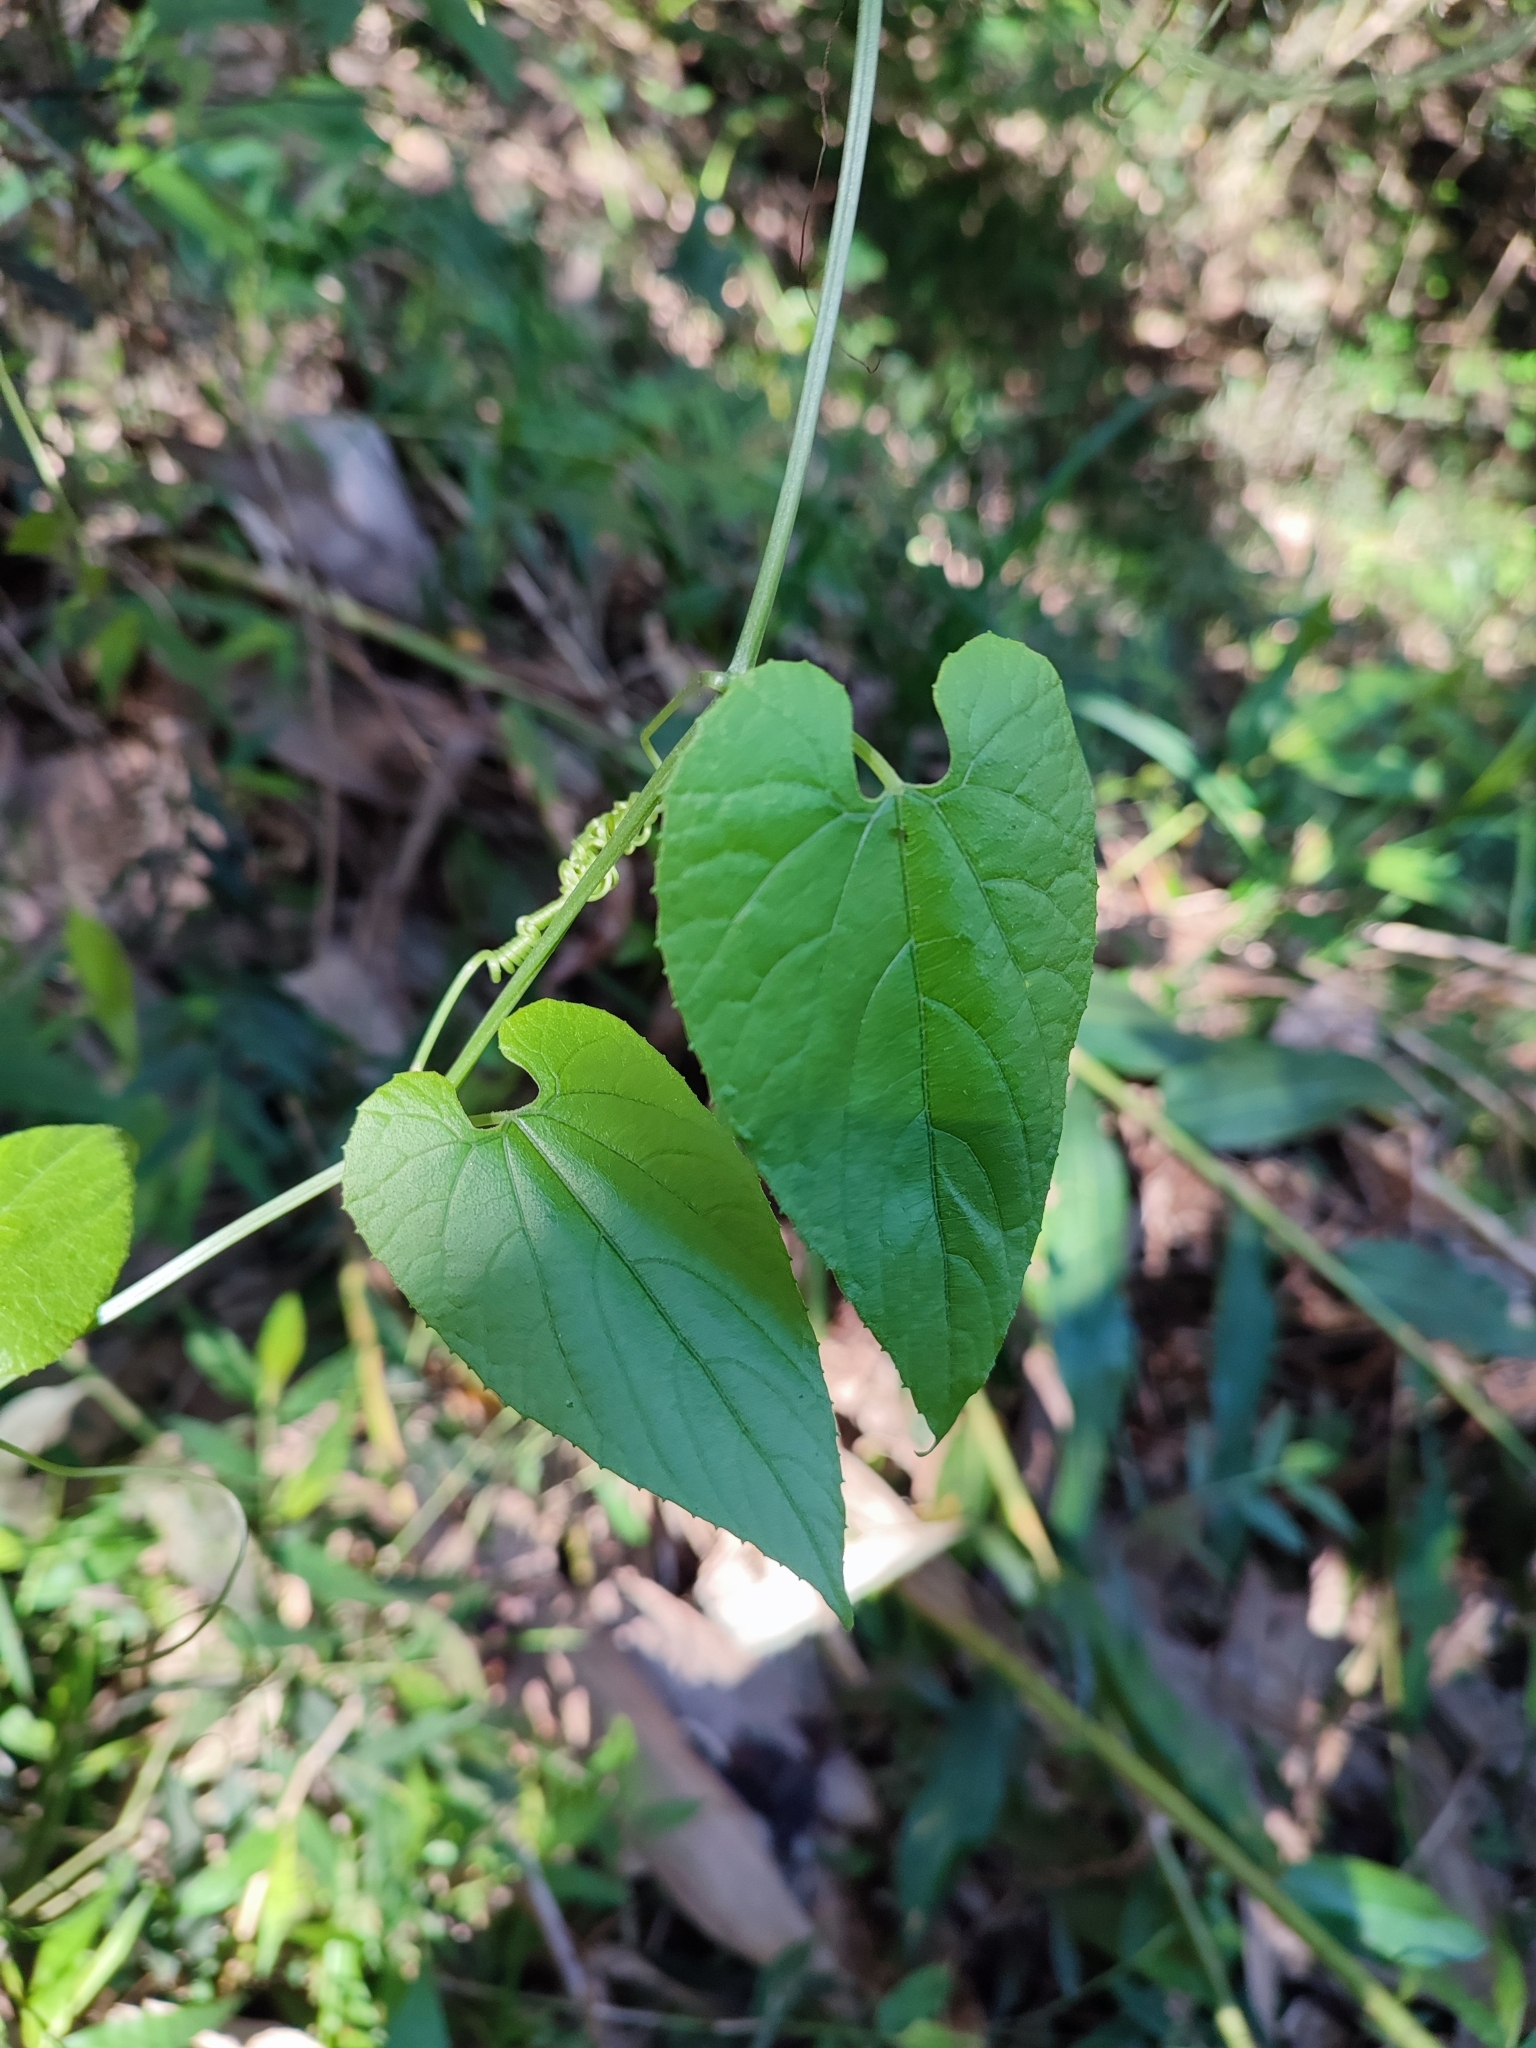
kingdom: Plantae
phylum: Tracheophyta
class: Magnoliopsida
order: Cucurbitales
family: Cucurbitaceae
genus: Thladiantha
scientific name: Thladiantha punctata
